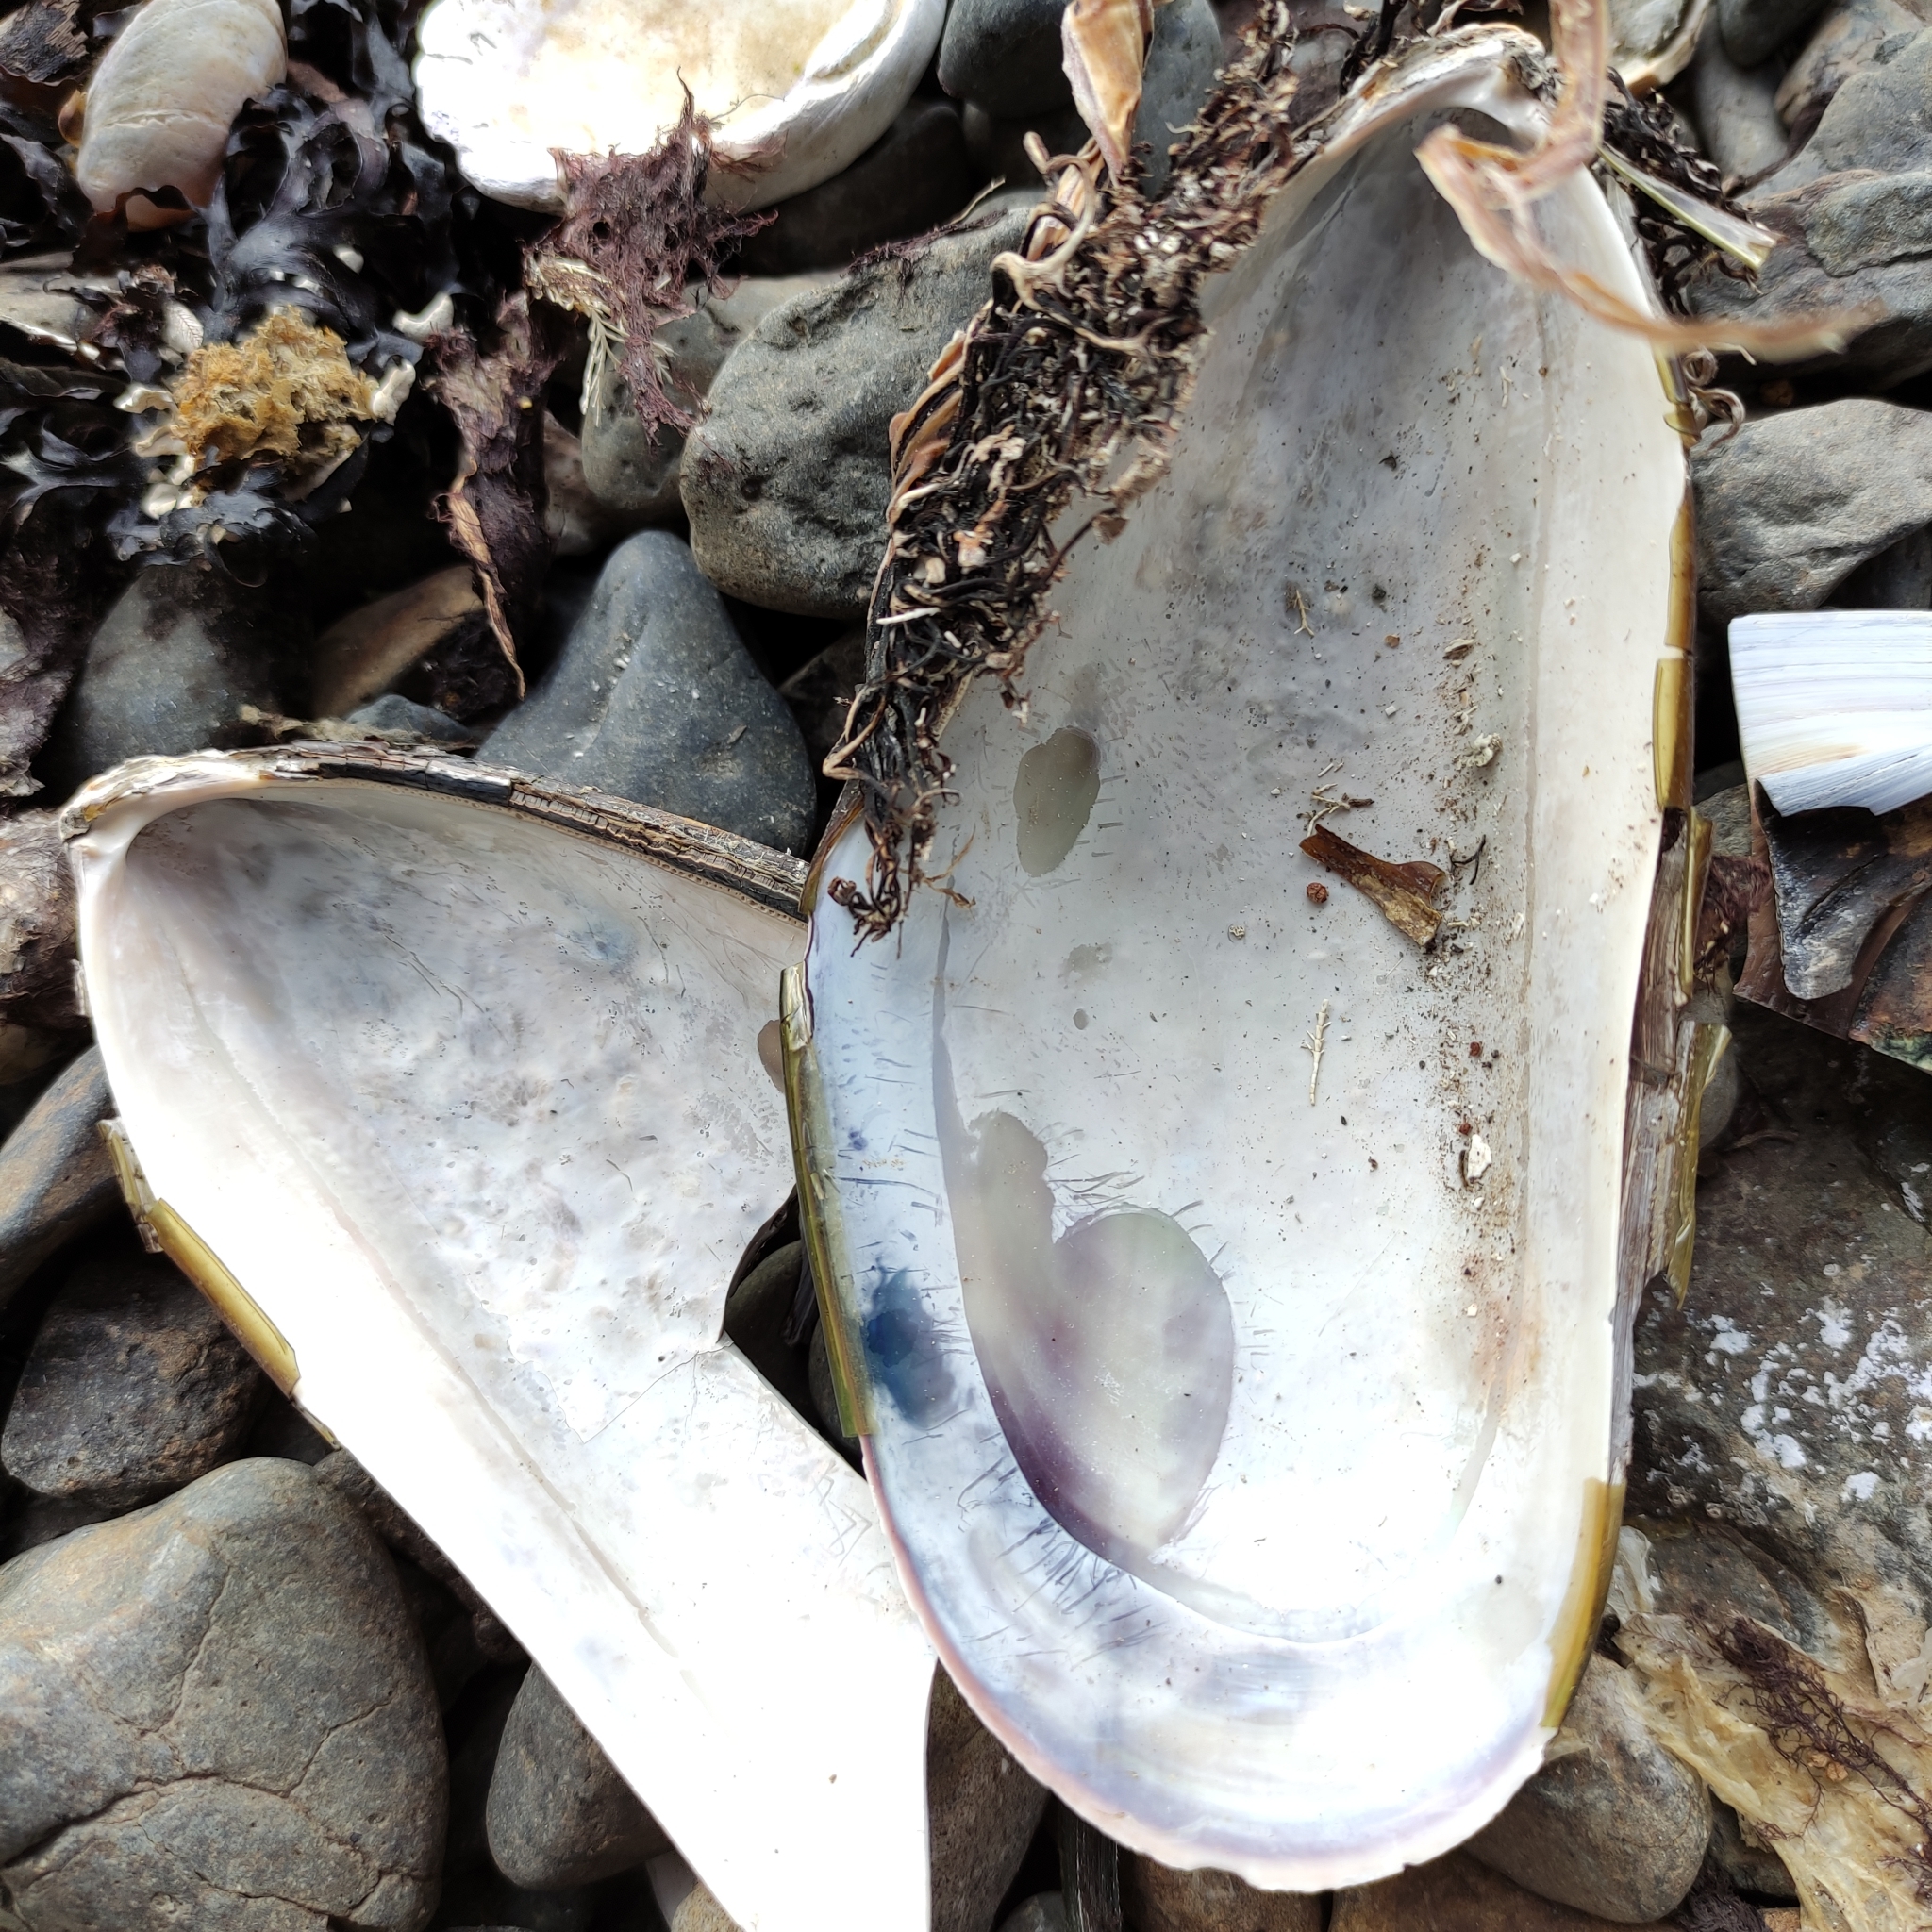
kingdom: Animalia
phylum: Mollusca
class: Bivalvia
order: Mytilida
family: Mytilidae
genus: Perna
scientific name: Perna canaliculus
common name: New zealand greenshelltm
